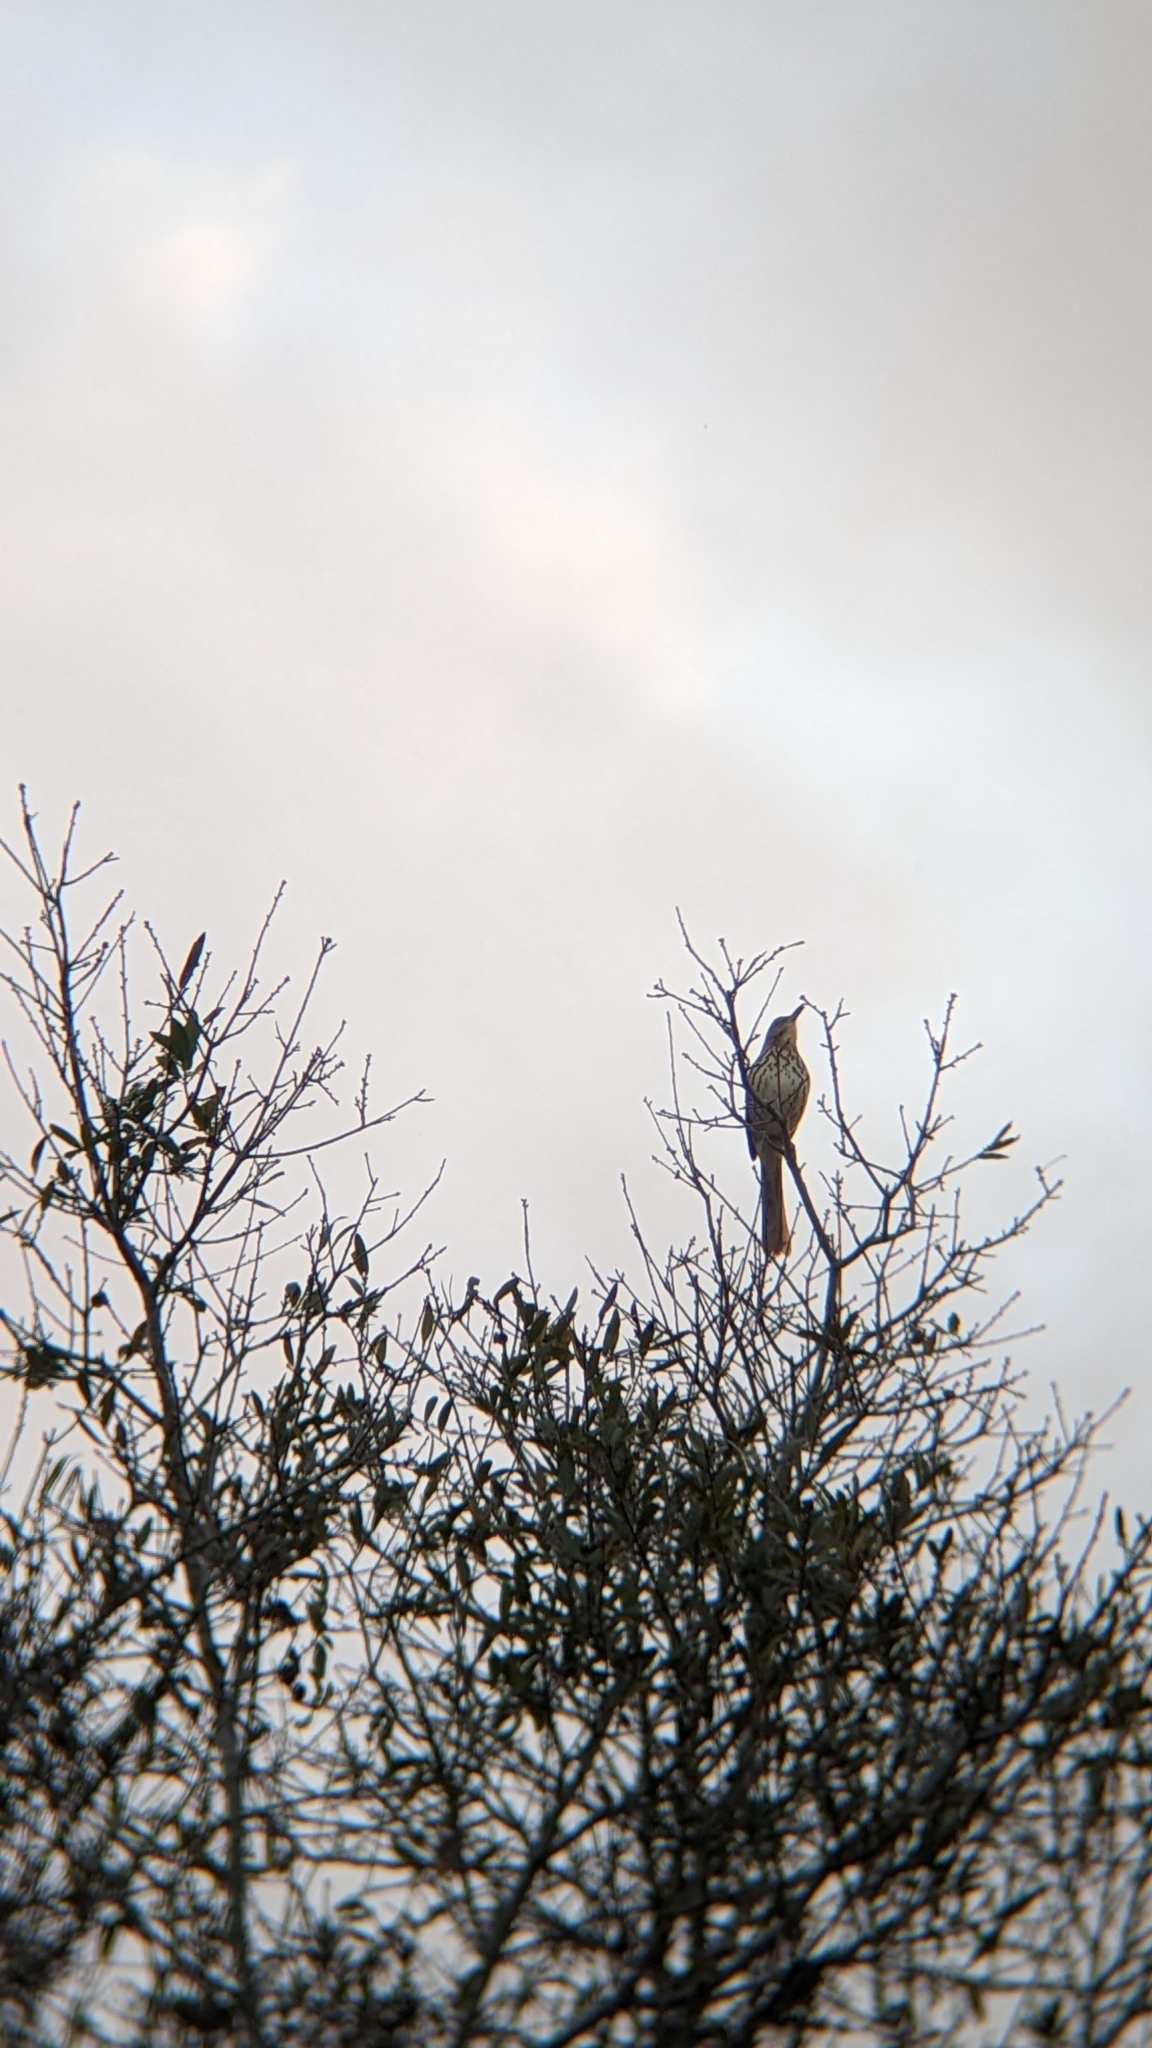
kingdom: Animalia
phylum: Chordata
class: Aves
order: Passeriformes
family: Mimidae
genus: Toxostoma
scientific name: Toxostoma rufum
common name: Brown thrasher
